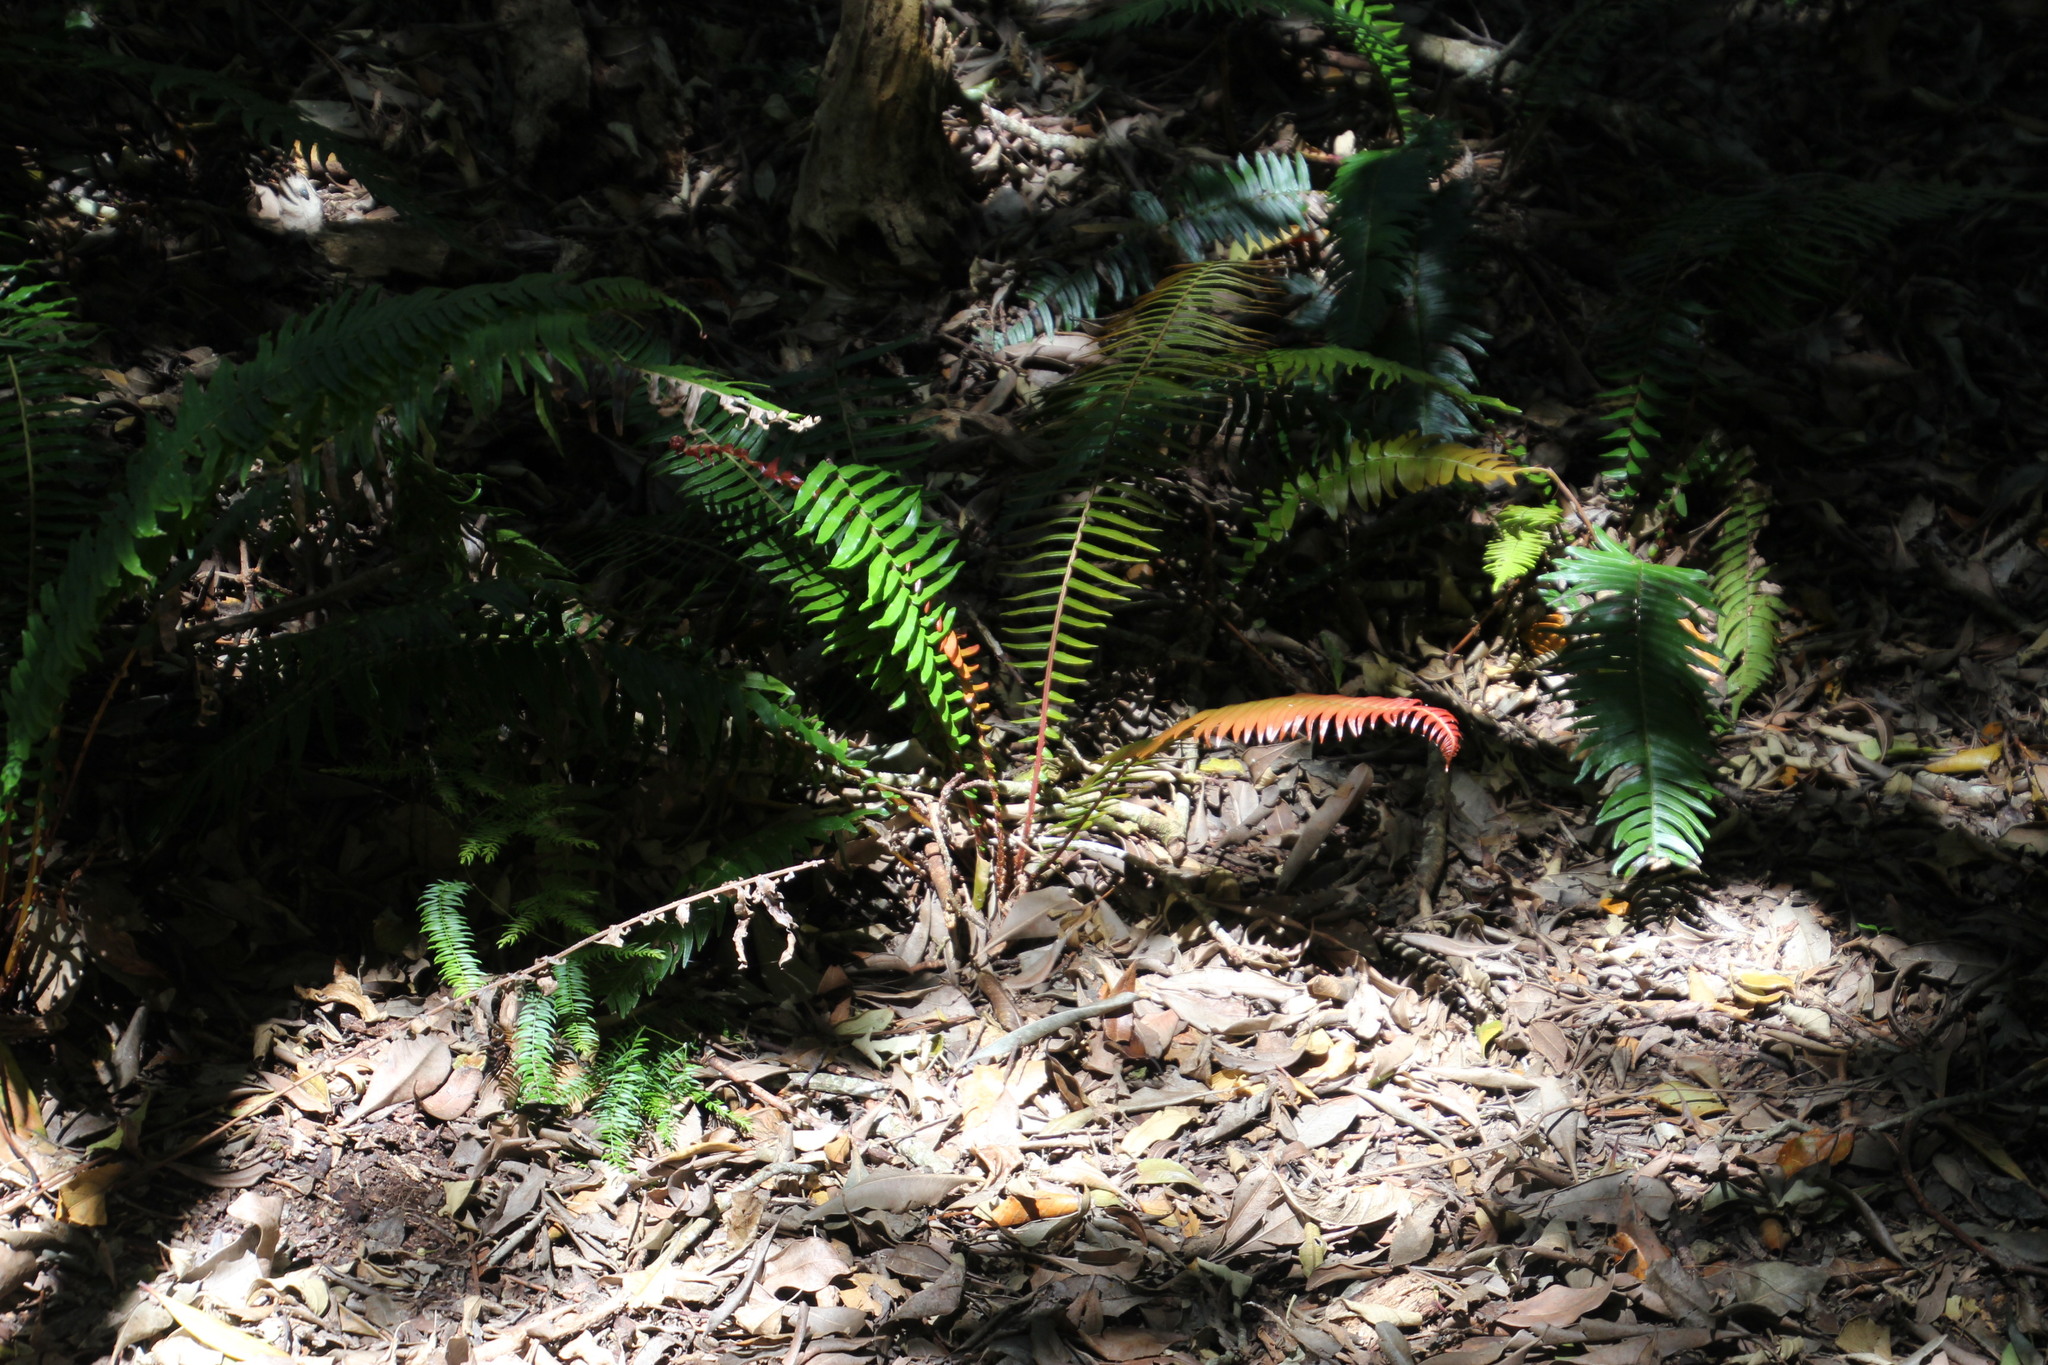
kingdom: Plantae
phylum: Tracheophyta
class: Polypodiopsida
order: Polypodiales
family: Blechnaceae
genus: Blechnum
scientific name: Blechnum punctulatum
